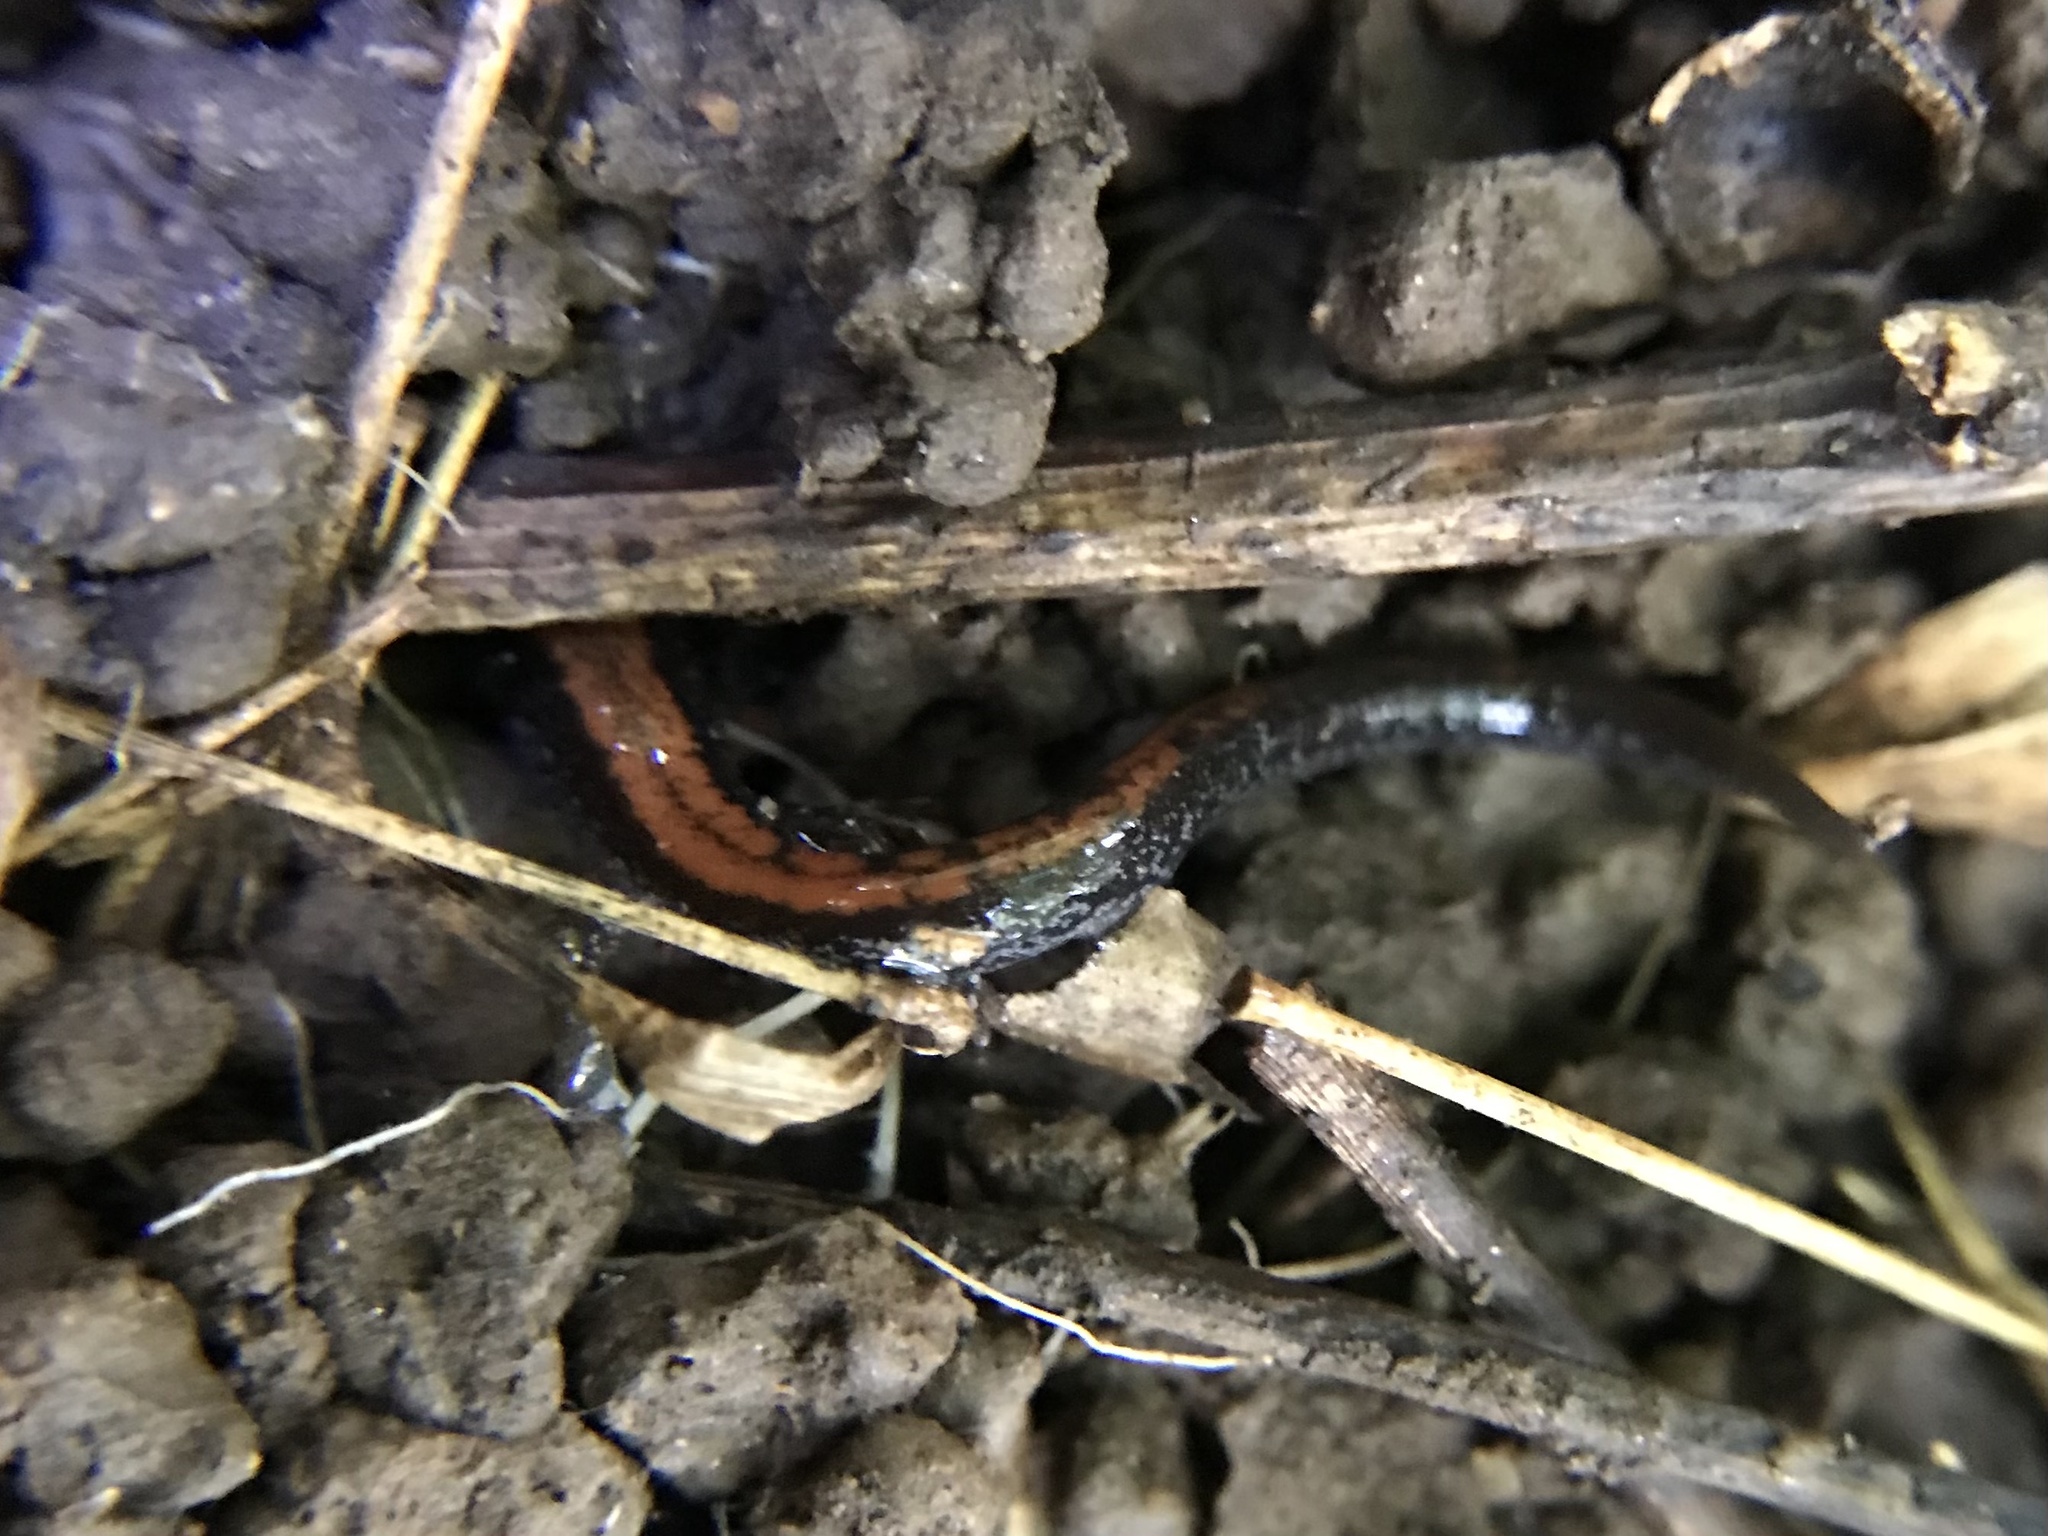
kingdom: Animalia
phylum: Chordata
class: Amphibia
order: Caudata
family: Plethodontidae
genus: Plethodon
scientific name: Plethodon cinereus
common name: Redback salamander
